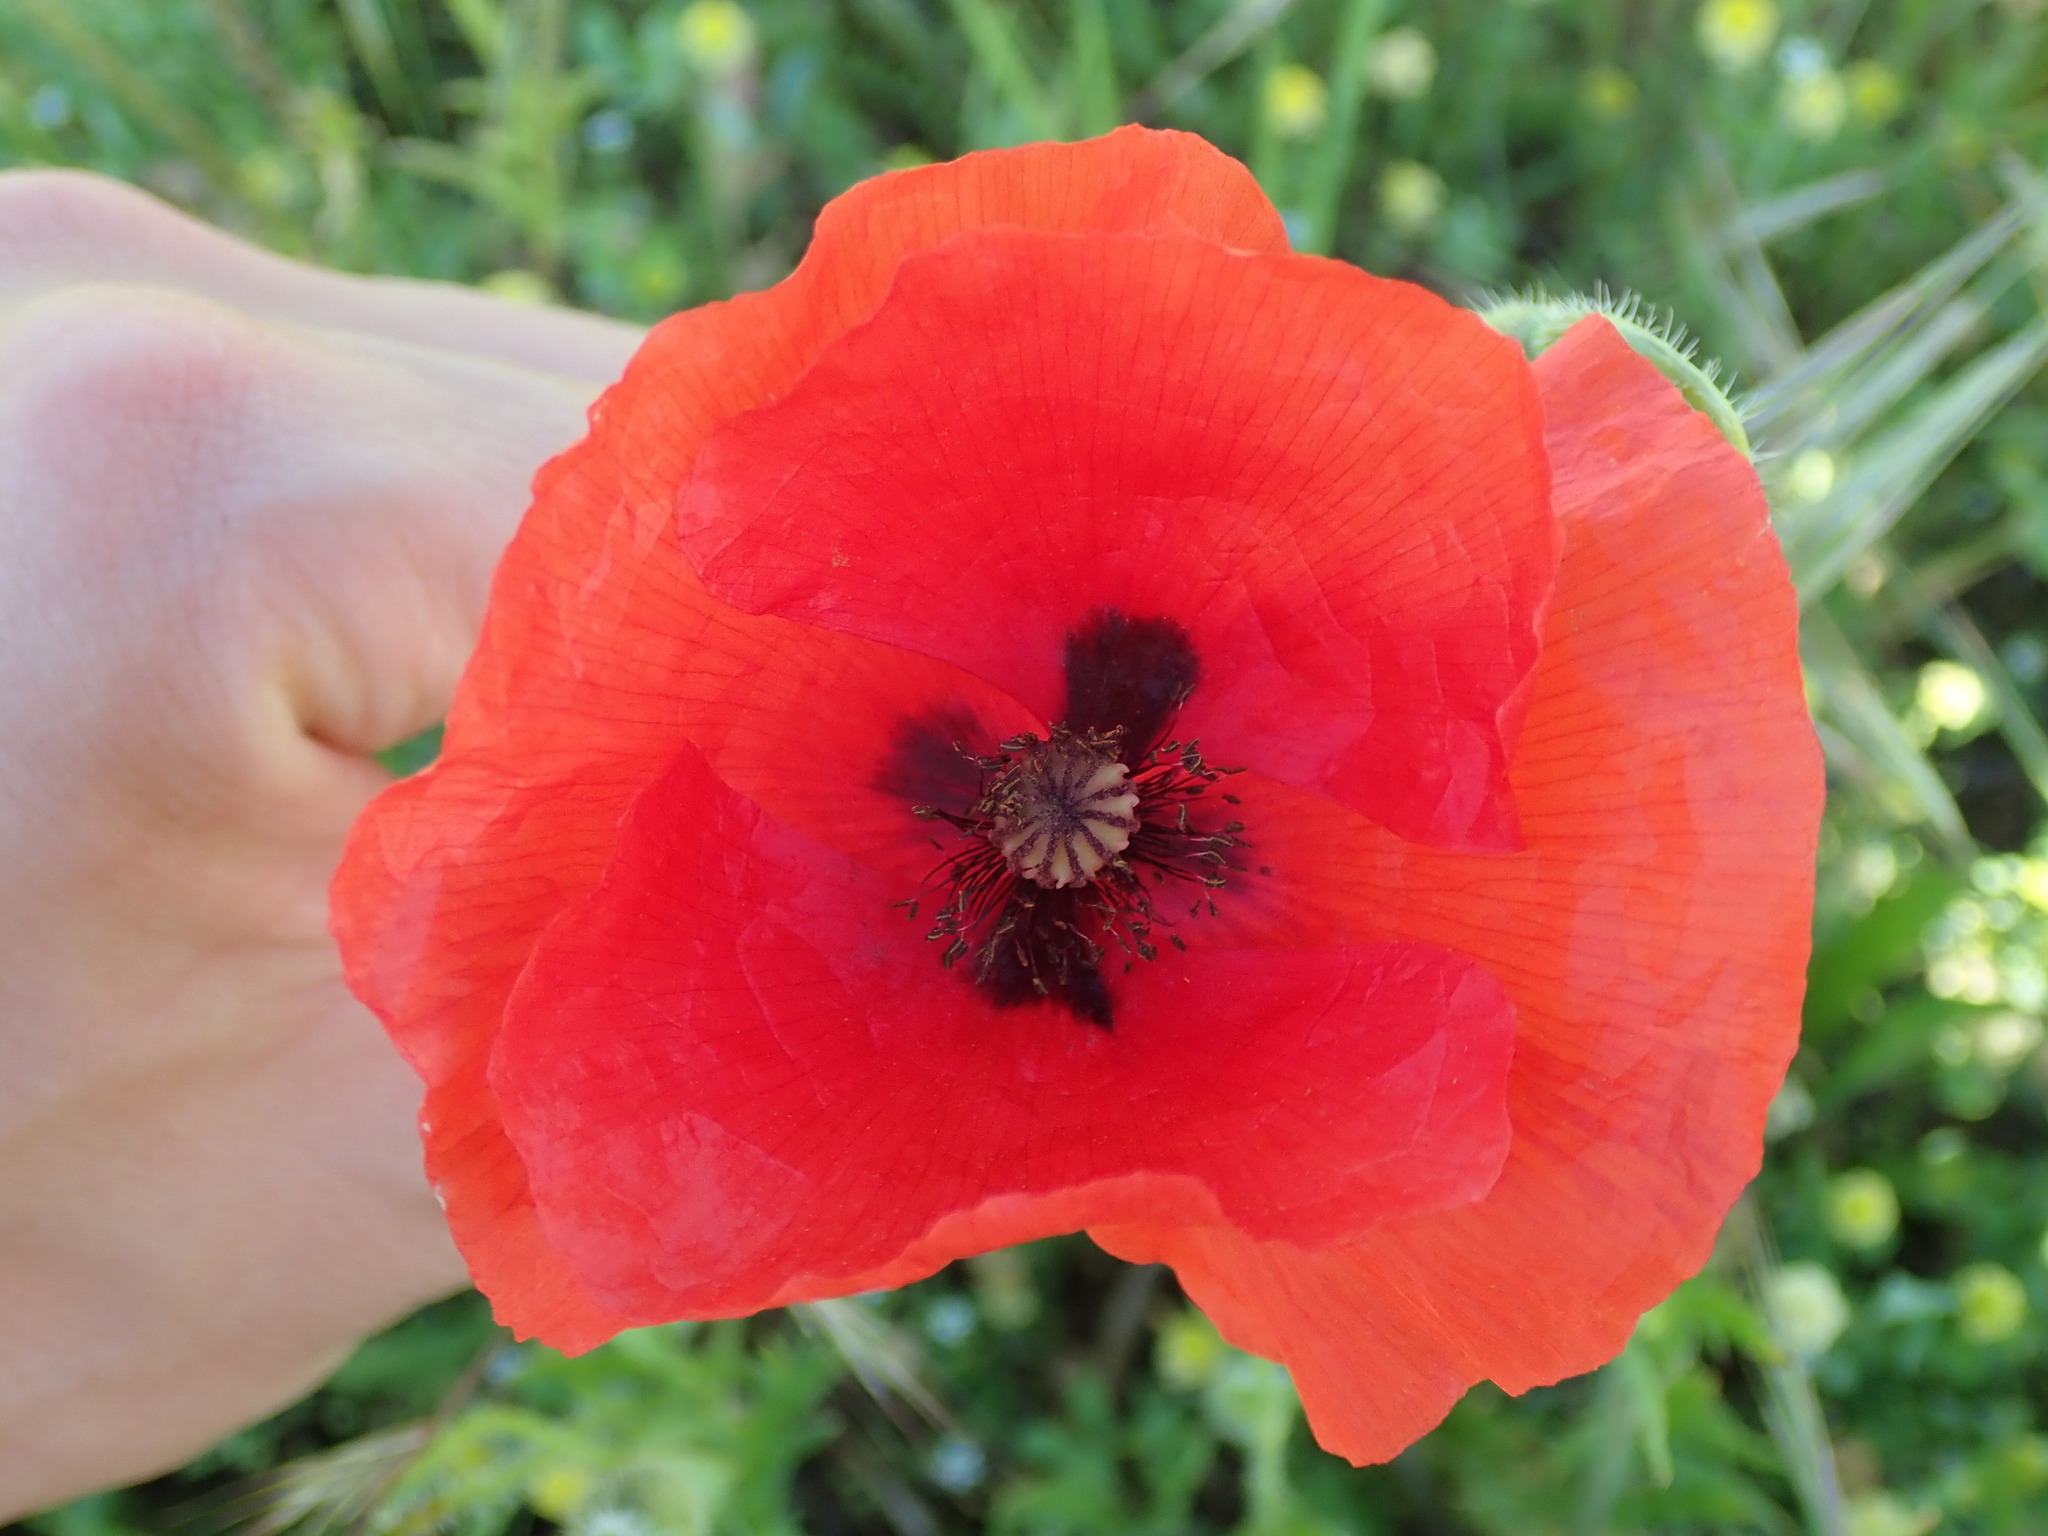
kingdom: Plantae
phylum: Tracheophyta
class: Magnoliopsida
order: Ranunculales
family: Papaveraceae
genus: Papaver
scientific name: Papaver rhoeas
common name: Corn poppy
